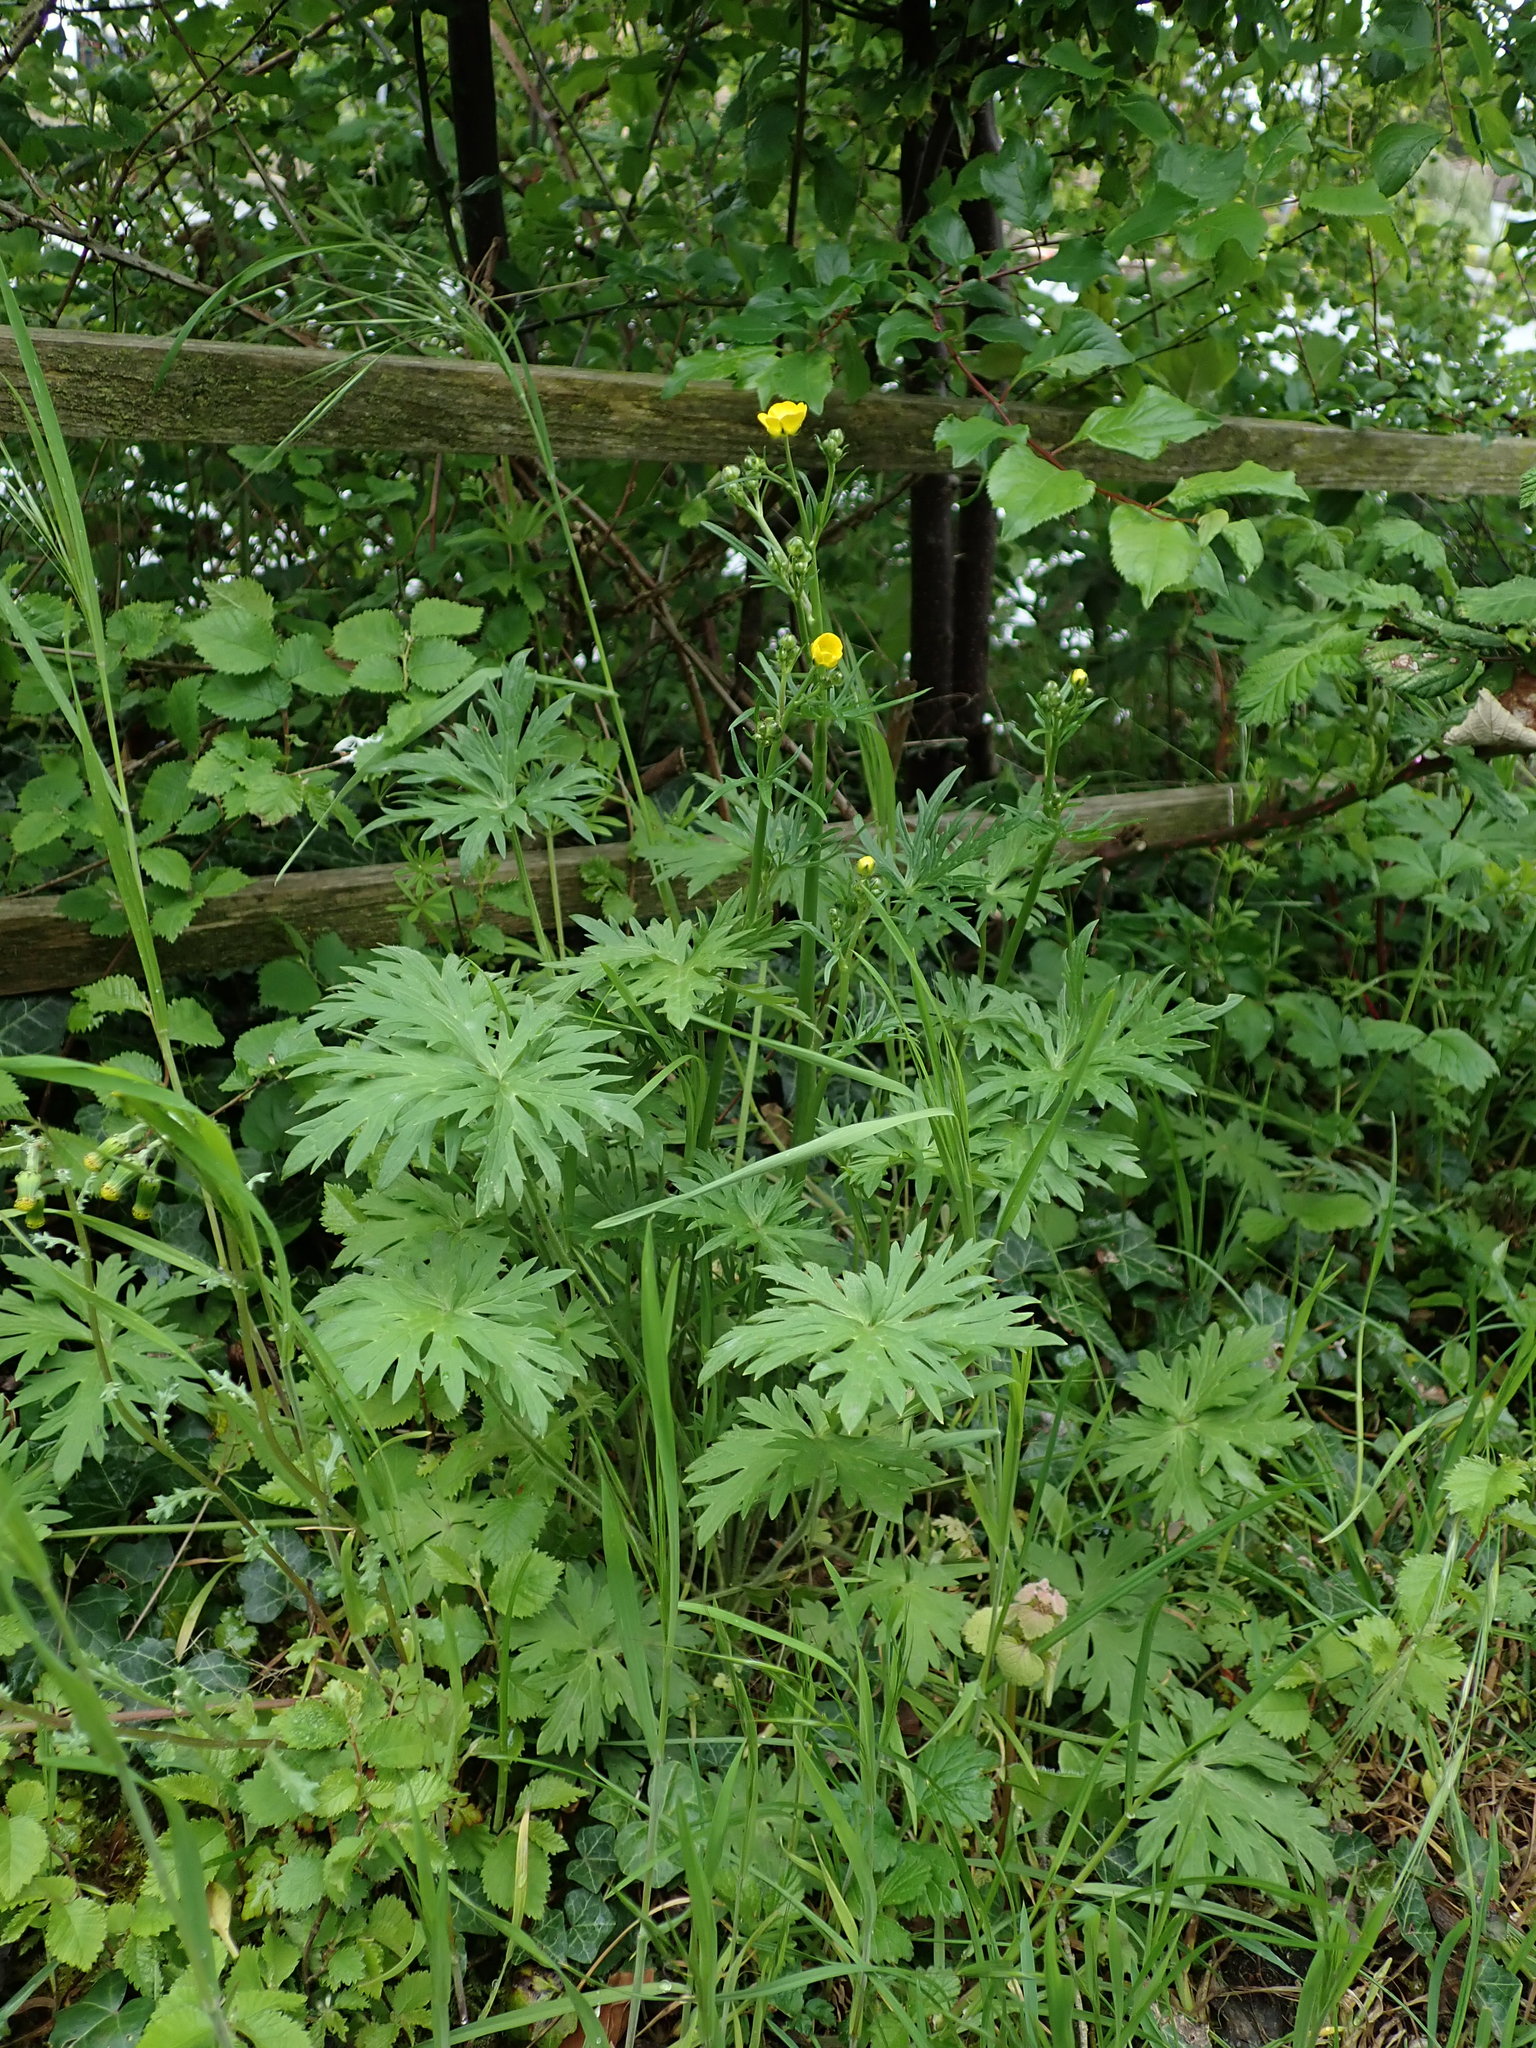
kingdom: Plantae
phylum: Tracheophyta
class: Magnoliopsida
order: Ranunculales
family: Ranunculaceae
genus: Ranunculus
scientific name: Ranunculus acris
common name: Meadow buttercup
